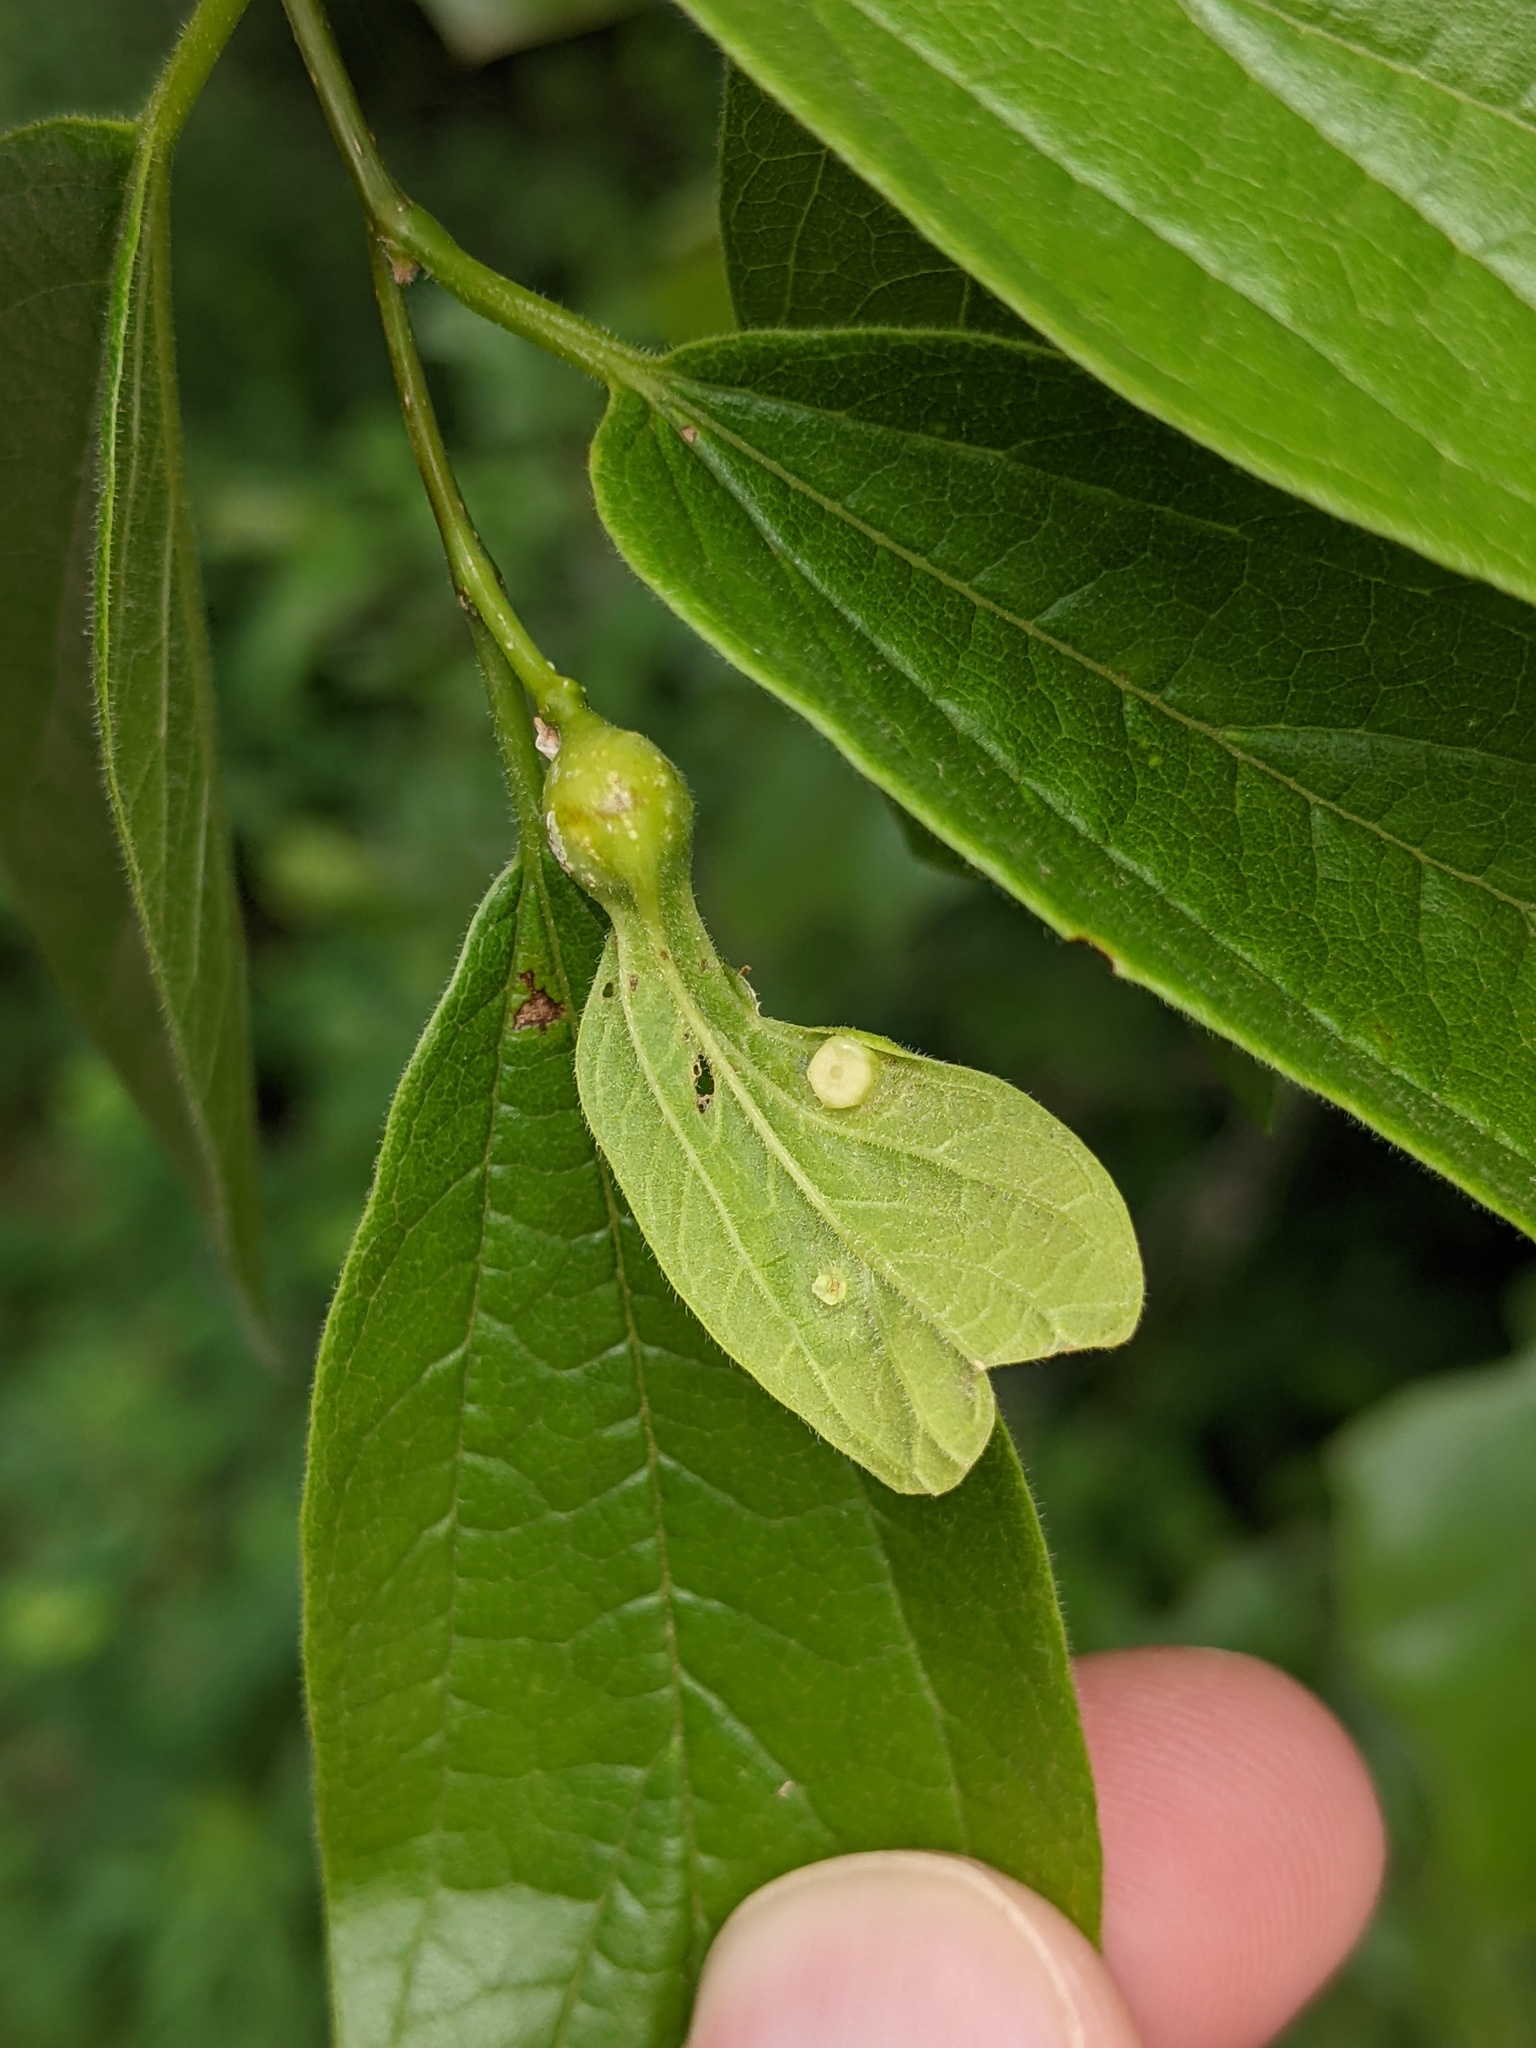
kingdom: Animalia
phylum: Arthropoda
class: Insecta
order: Hemiptera
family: Aphalaridae
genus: Pachypsylla
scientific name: Pachypsylla celtidismamma
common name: Hackberry nipplegall psyllid
